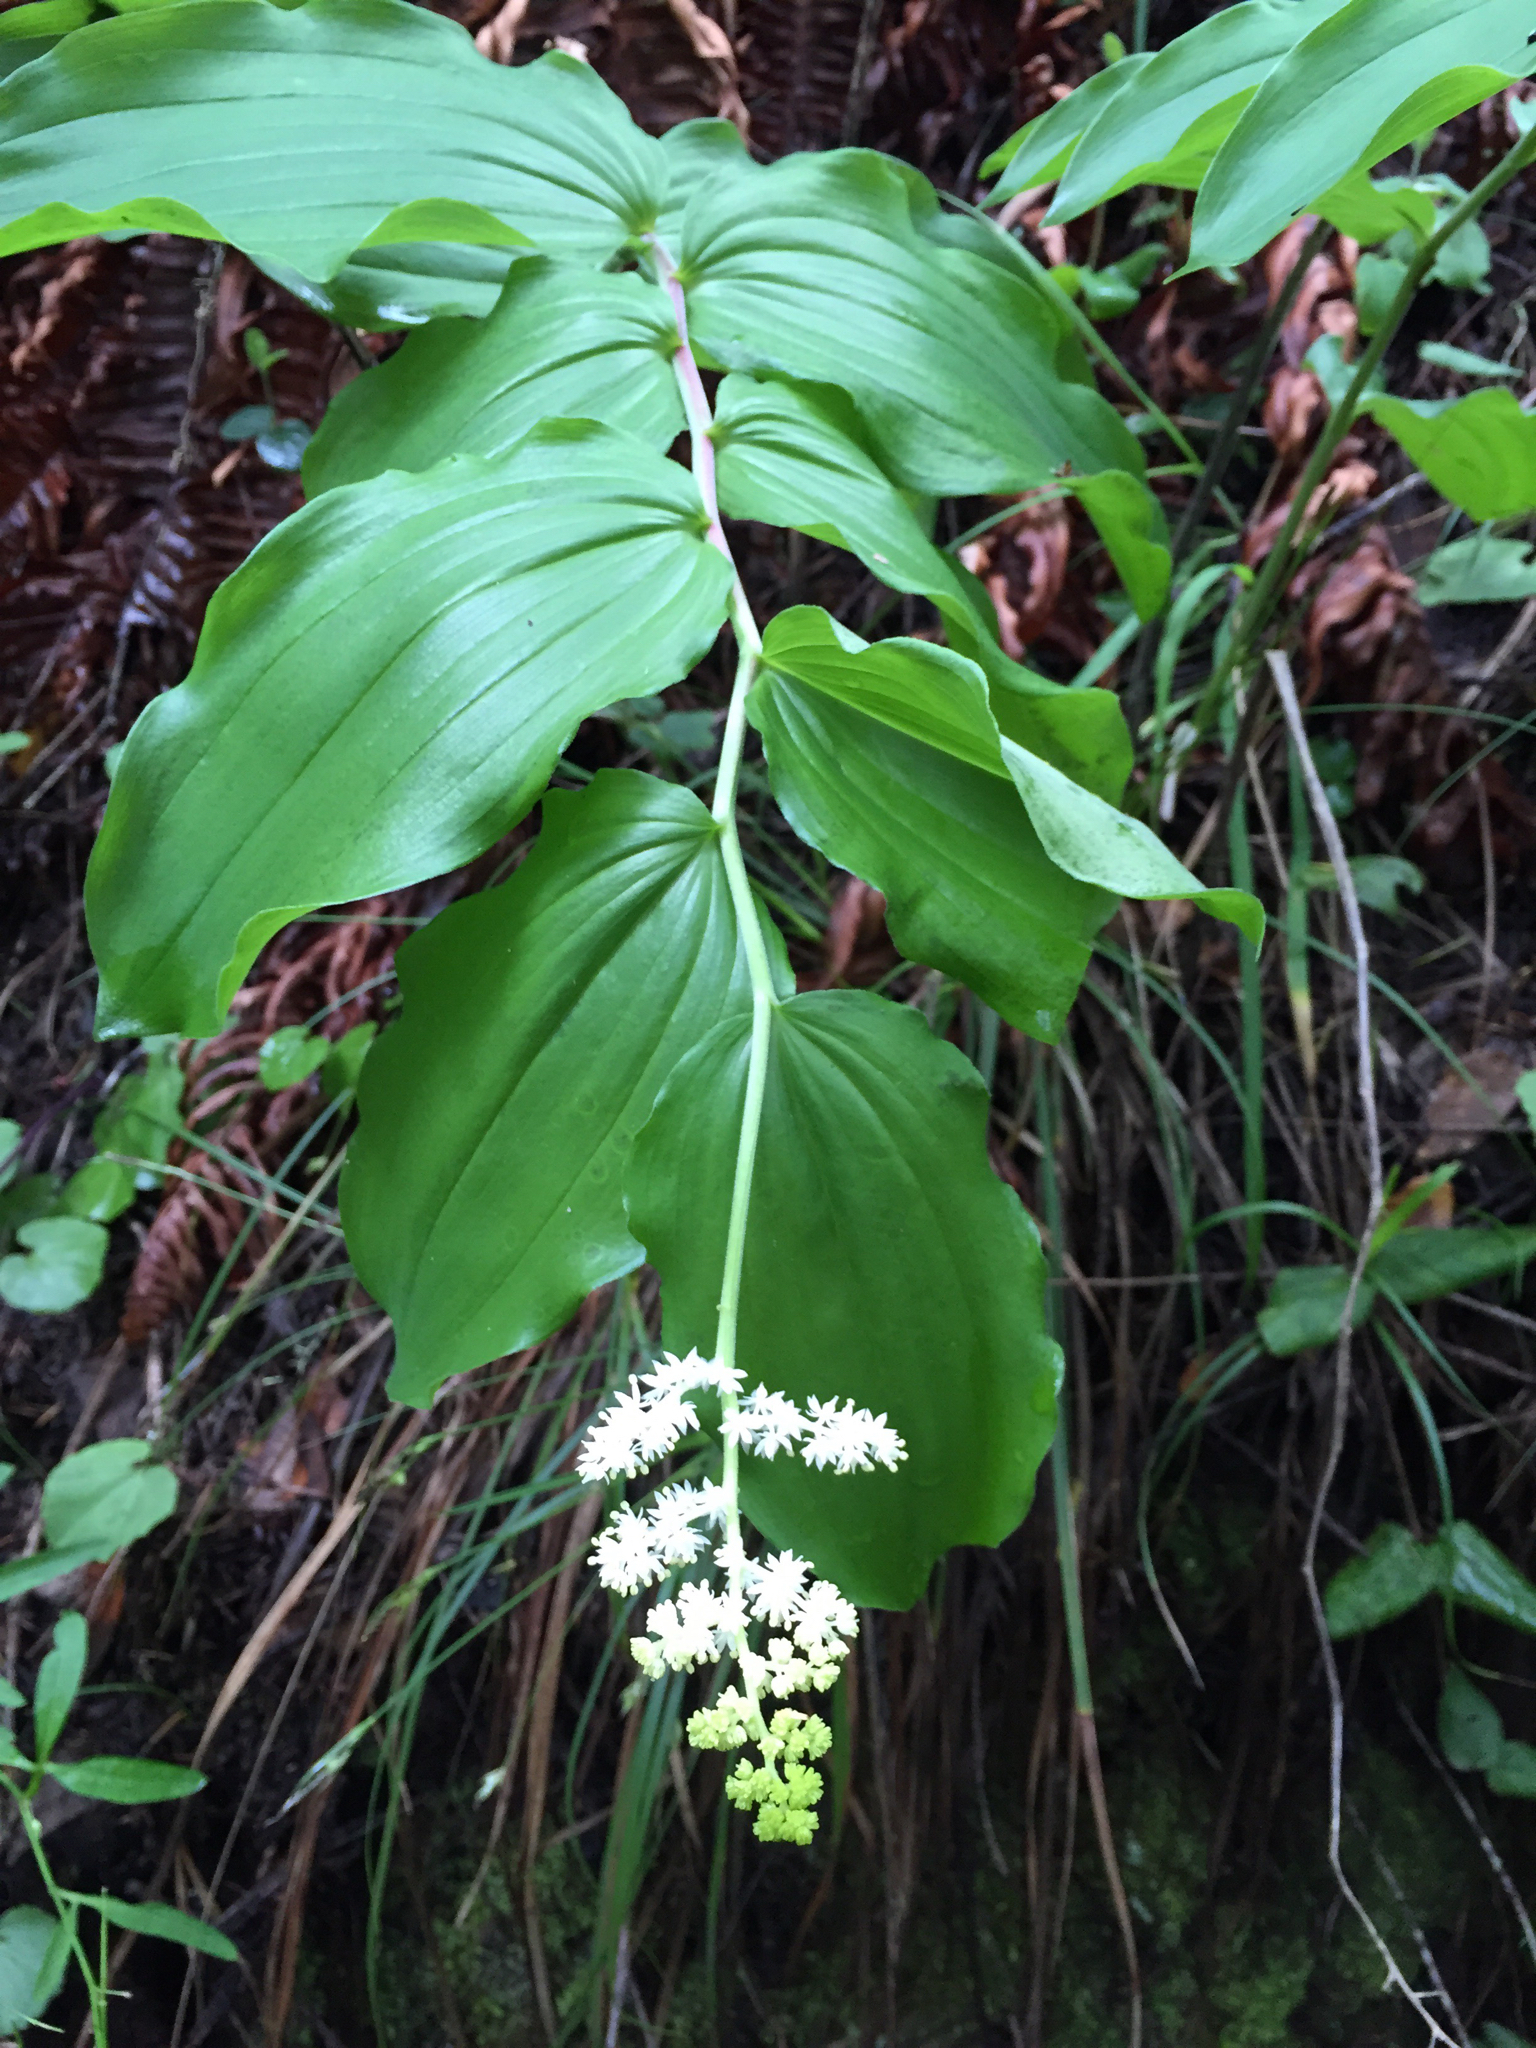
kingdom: Plantae
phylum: Tracheophyta
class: Liliopsida
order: Asparagales
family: Asparagaceae
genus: Maianthemum
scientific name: Maianthemum racemosum
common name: False spikenard
